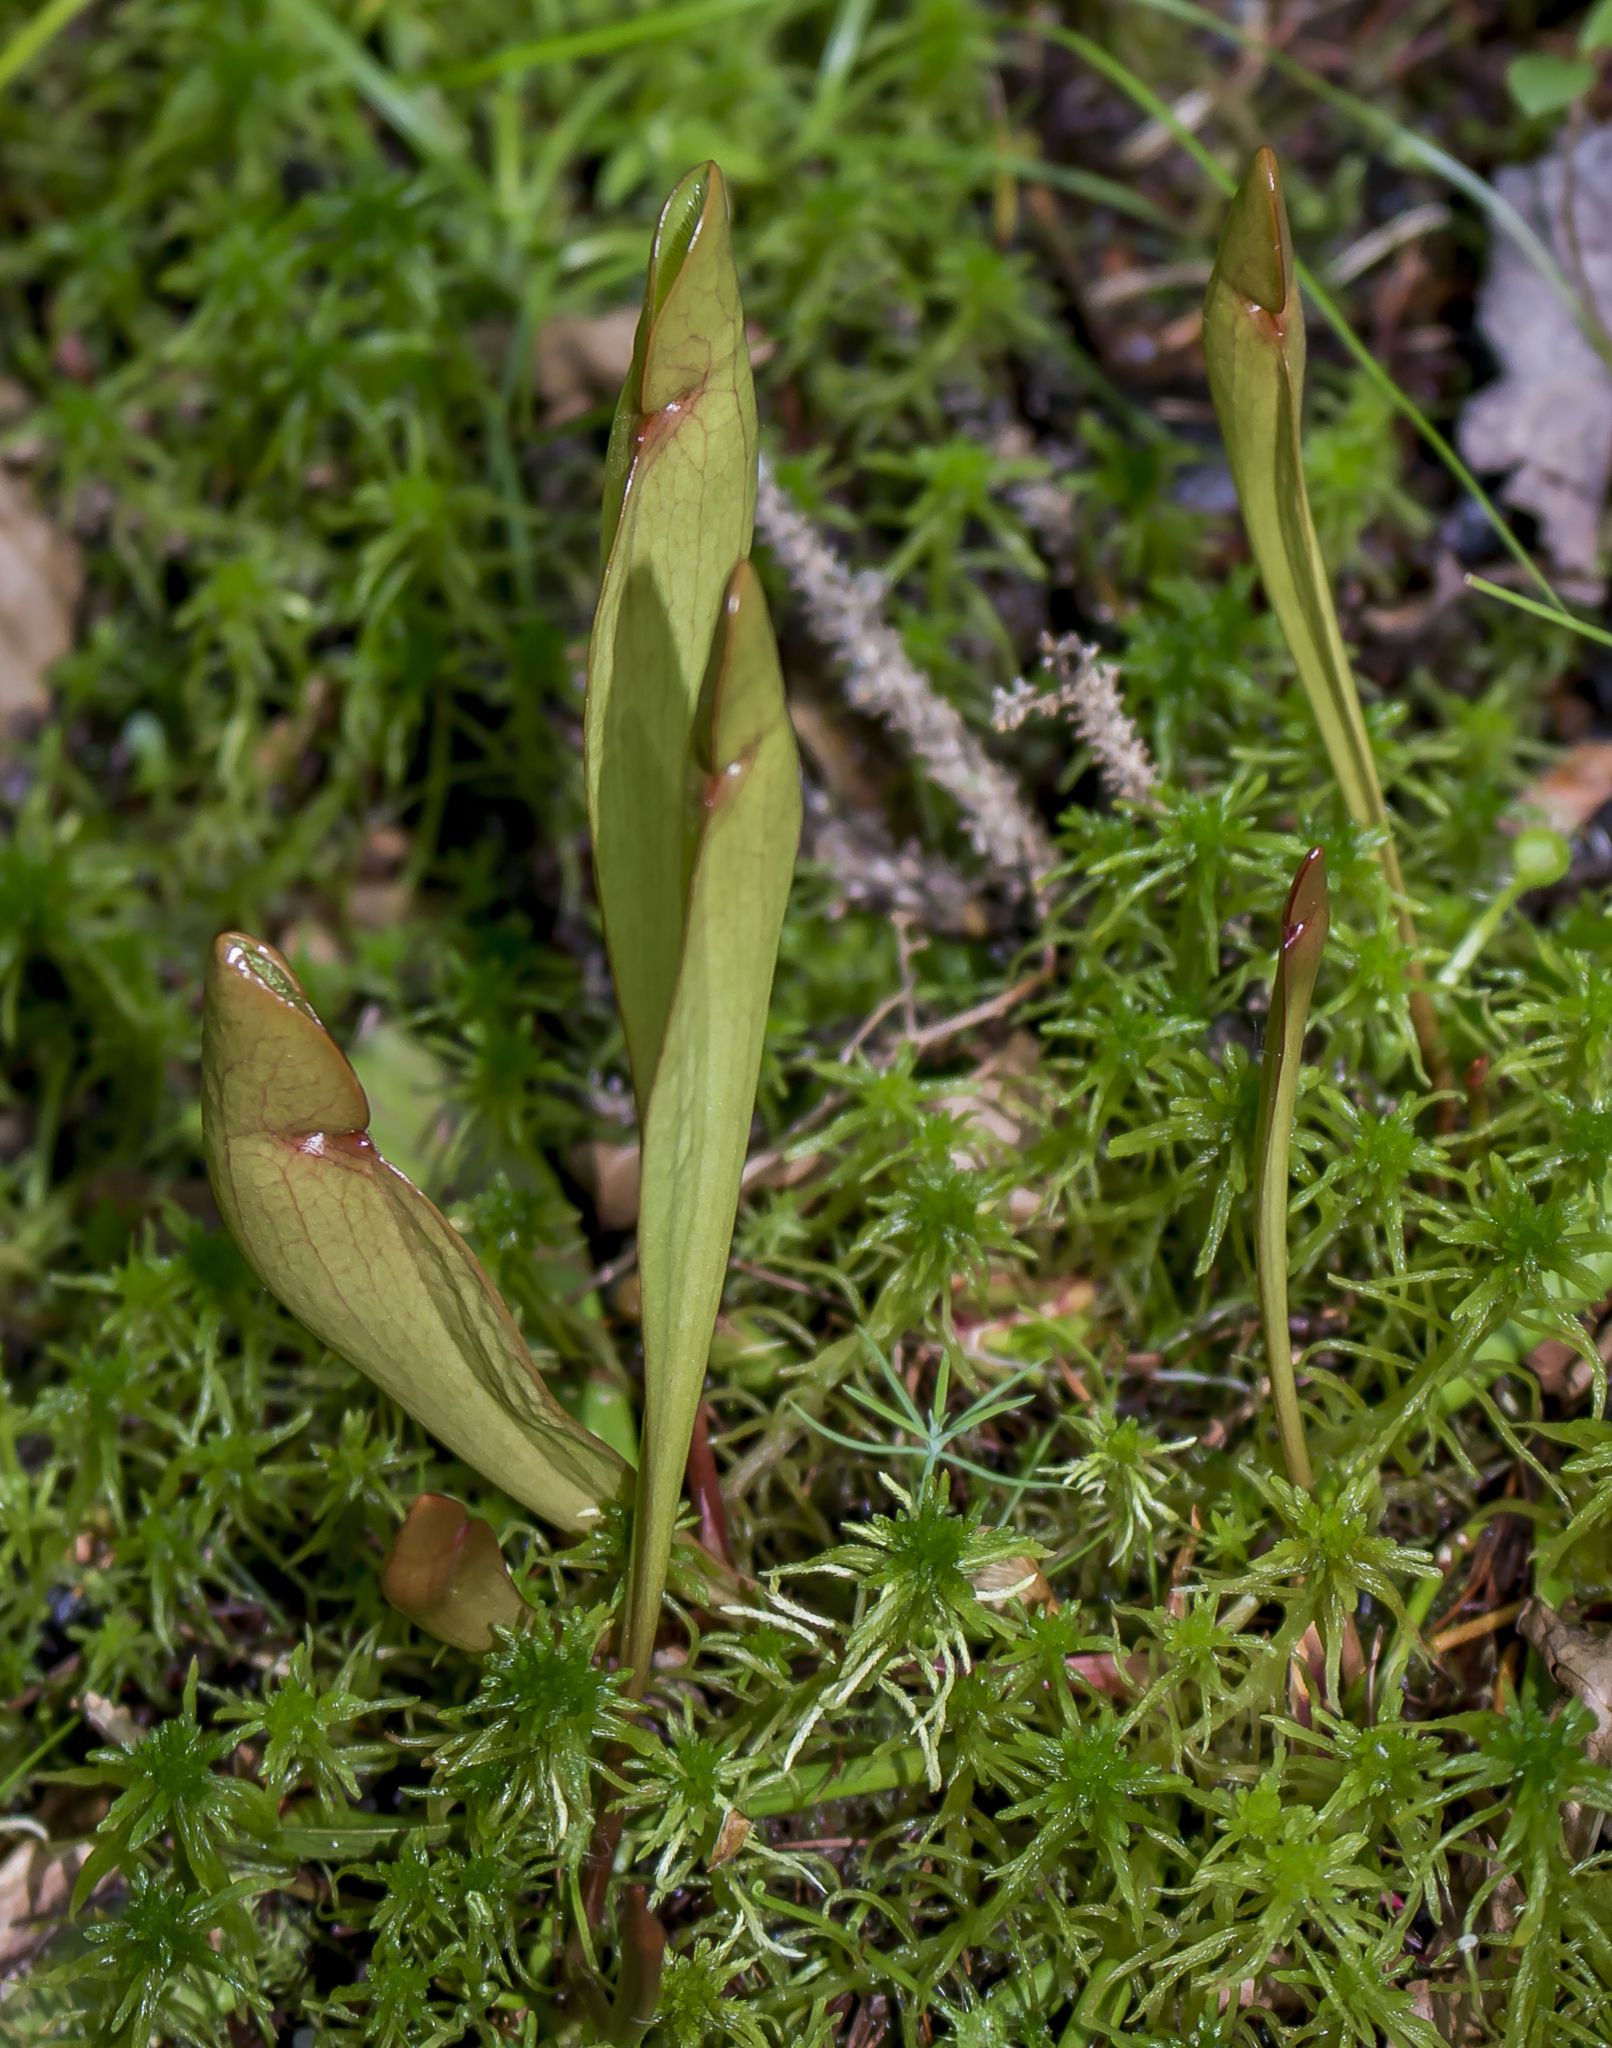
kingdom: Plantae
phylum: Tracheophyta
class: Magnoliopsida
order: Ericales
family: Sarraceniaceae
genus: Sarracenia
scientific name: Sarracenia purpurea
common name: Pitcherplant
